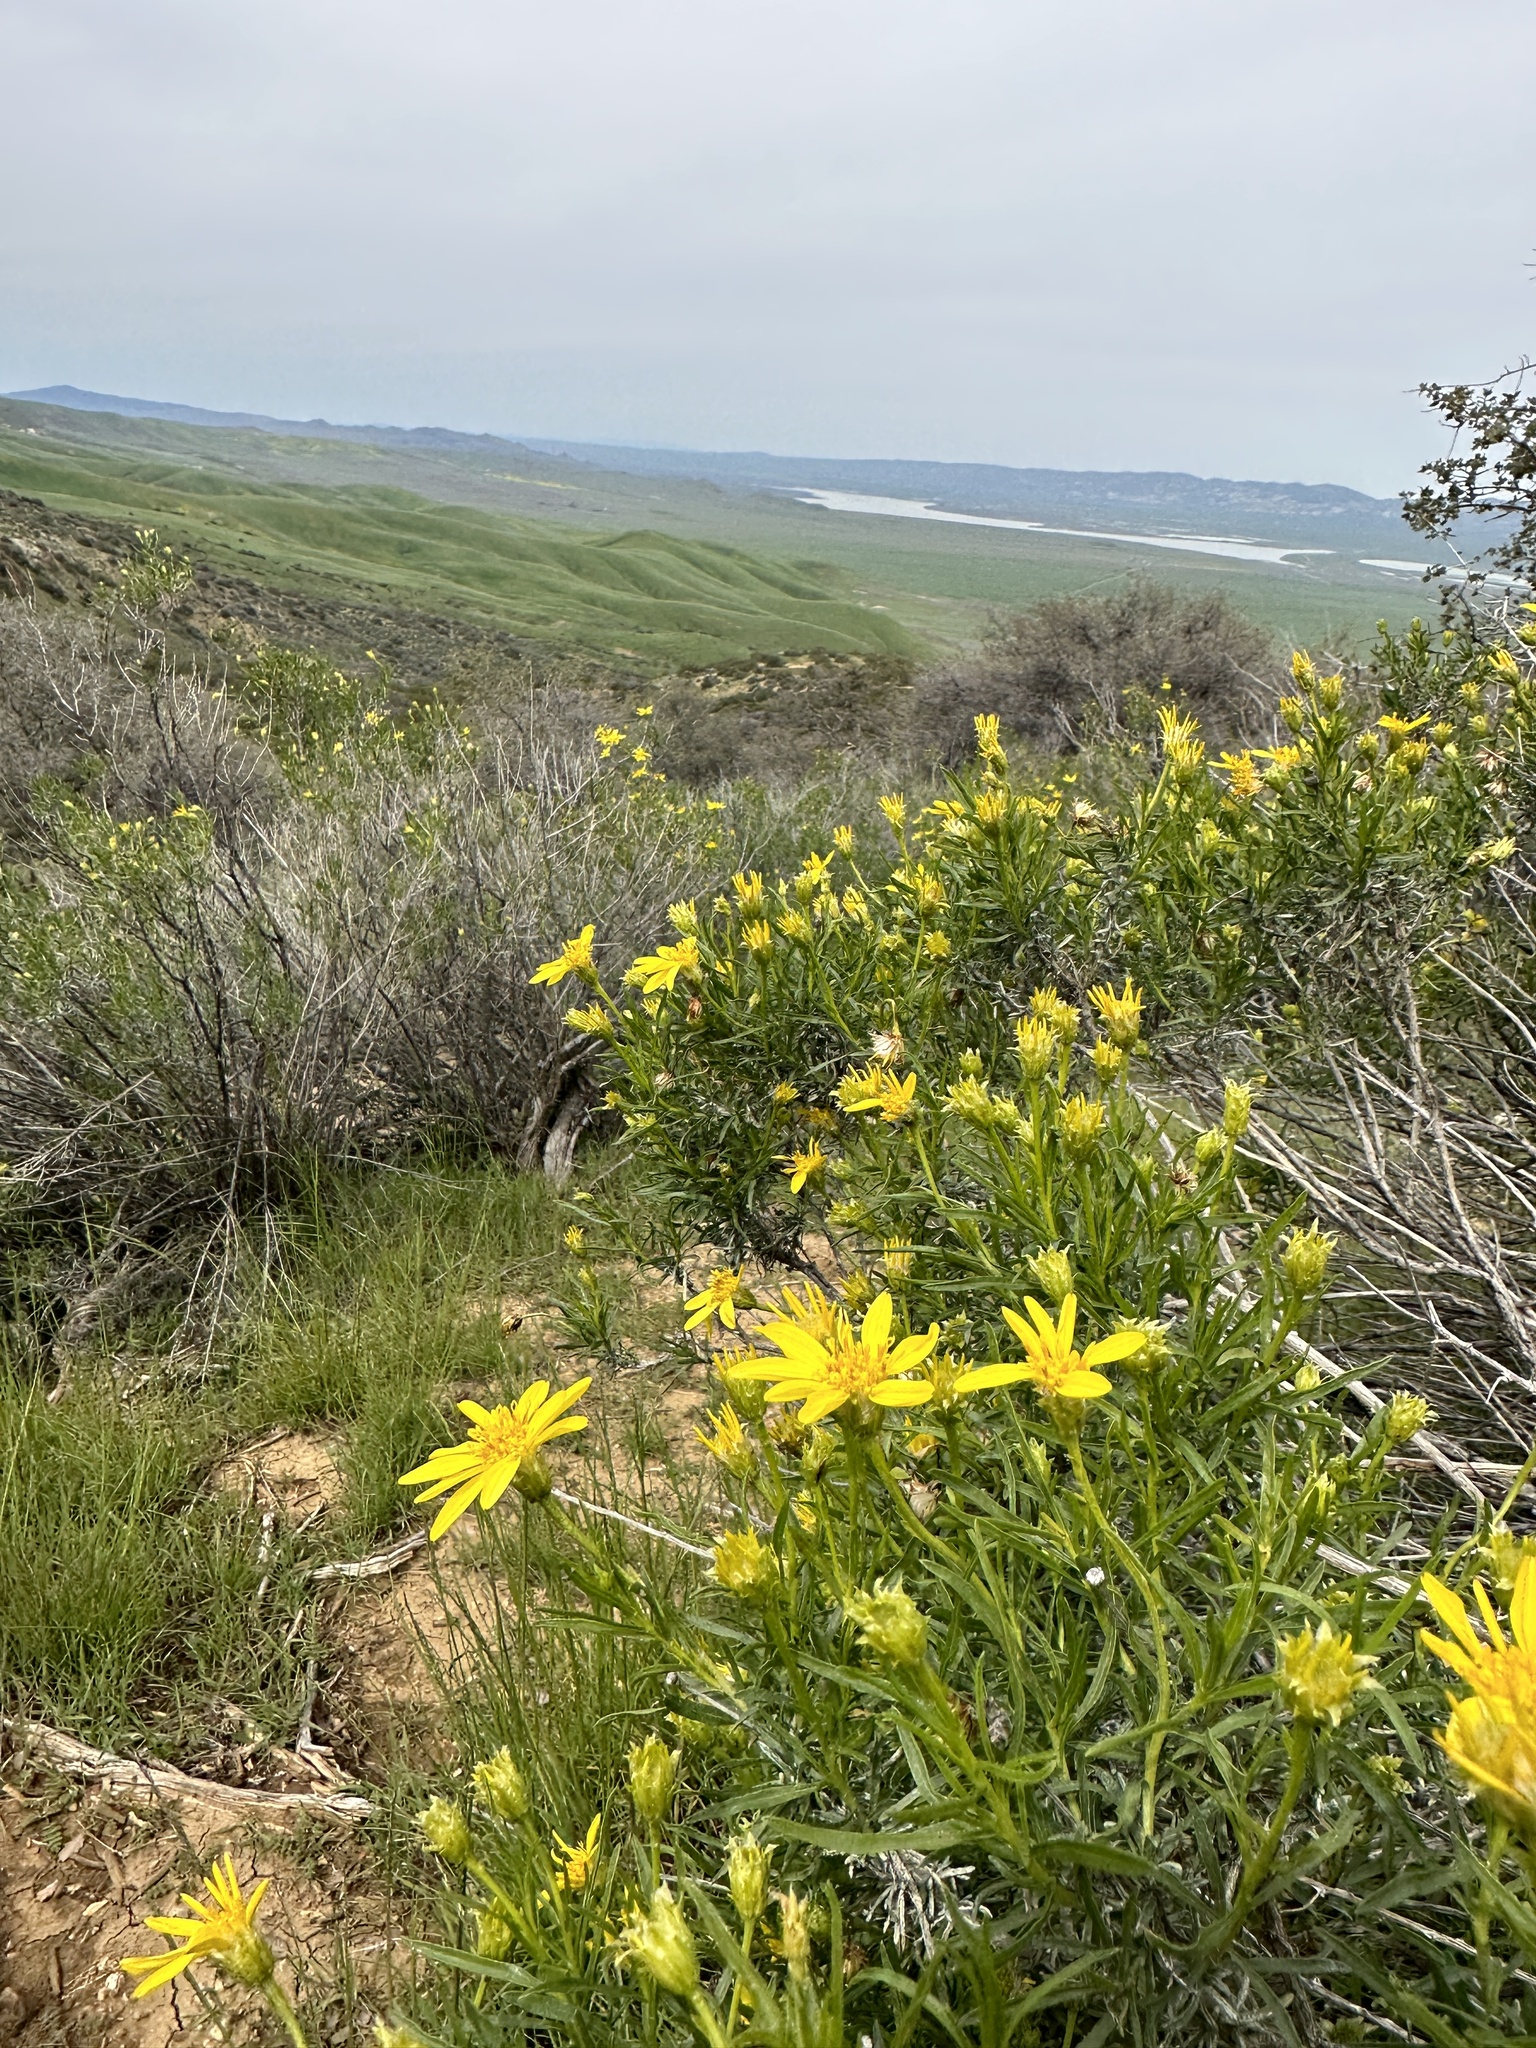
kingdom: Plantae
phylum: Tracheophyta
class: Magnoliopsida
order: Asterales
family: Asteraceae
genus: Ericameria
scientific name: Ericameria linearifolia
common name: Interior goldenbush
